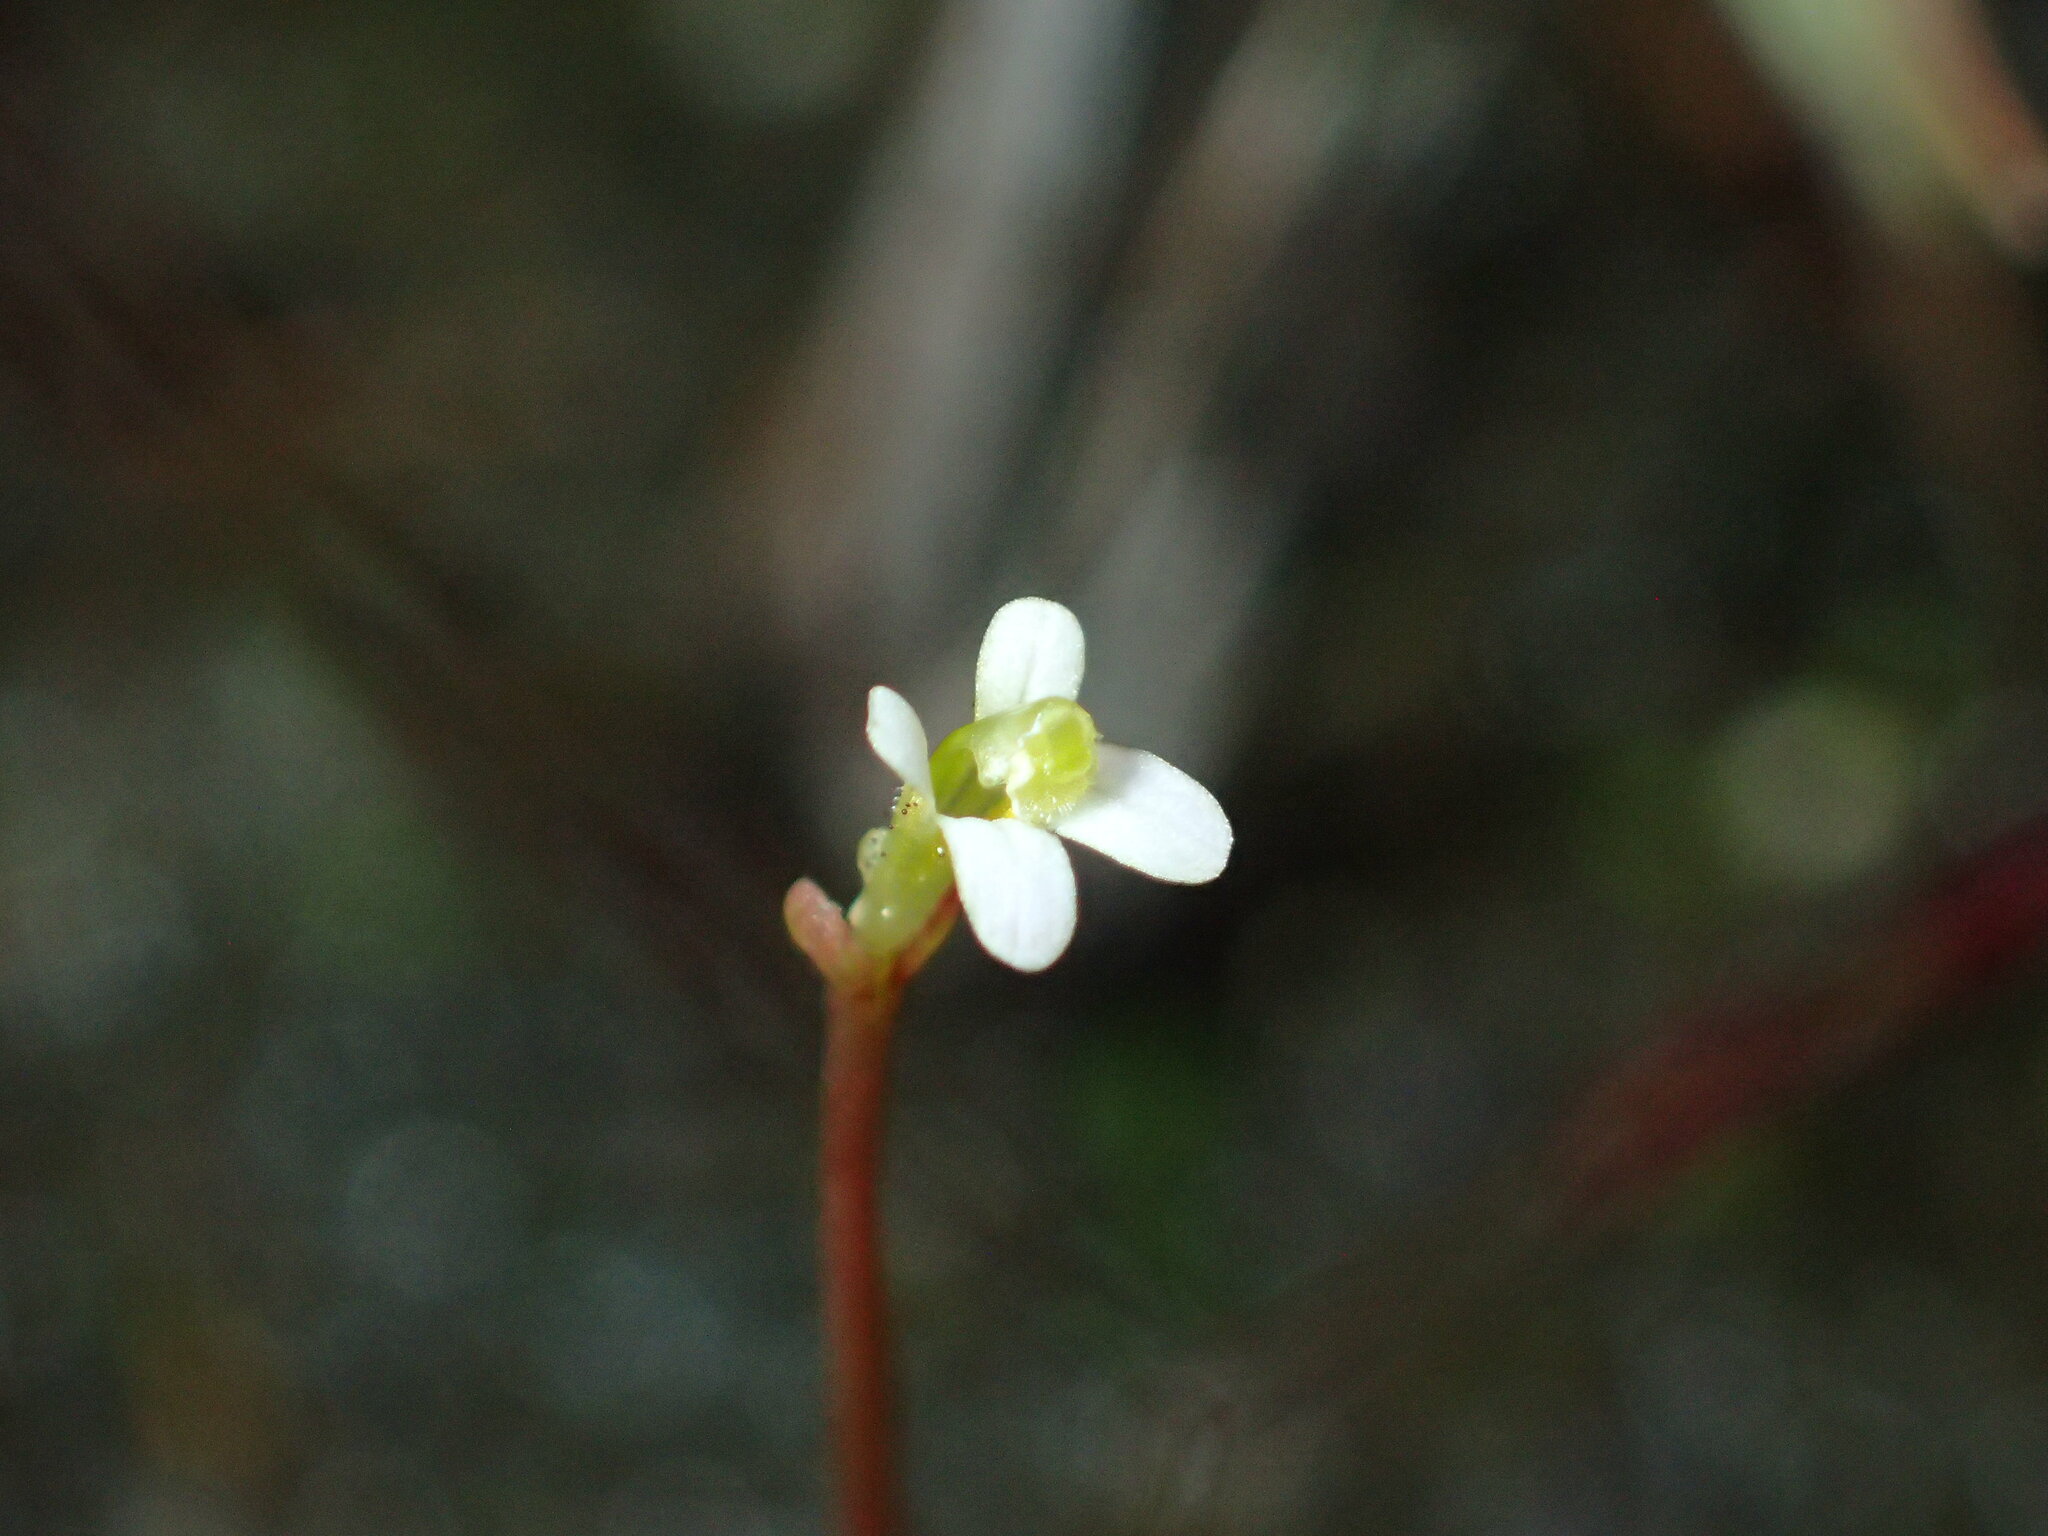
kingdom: Plantae
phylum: Tracheophyta
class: Magnoliopsida
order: Asterales
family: Stylidiaceae
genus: Stylidium
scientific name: Stylidium rotundifolium
